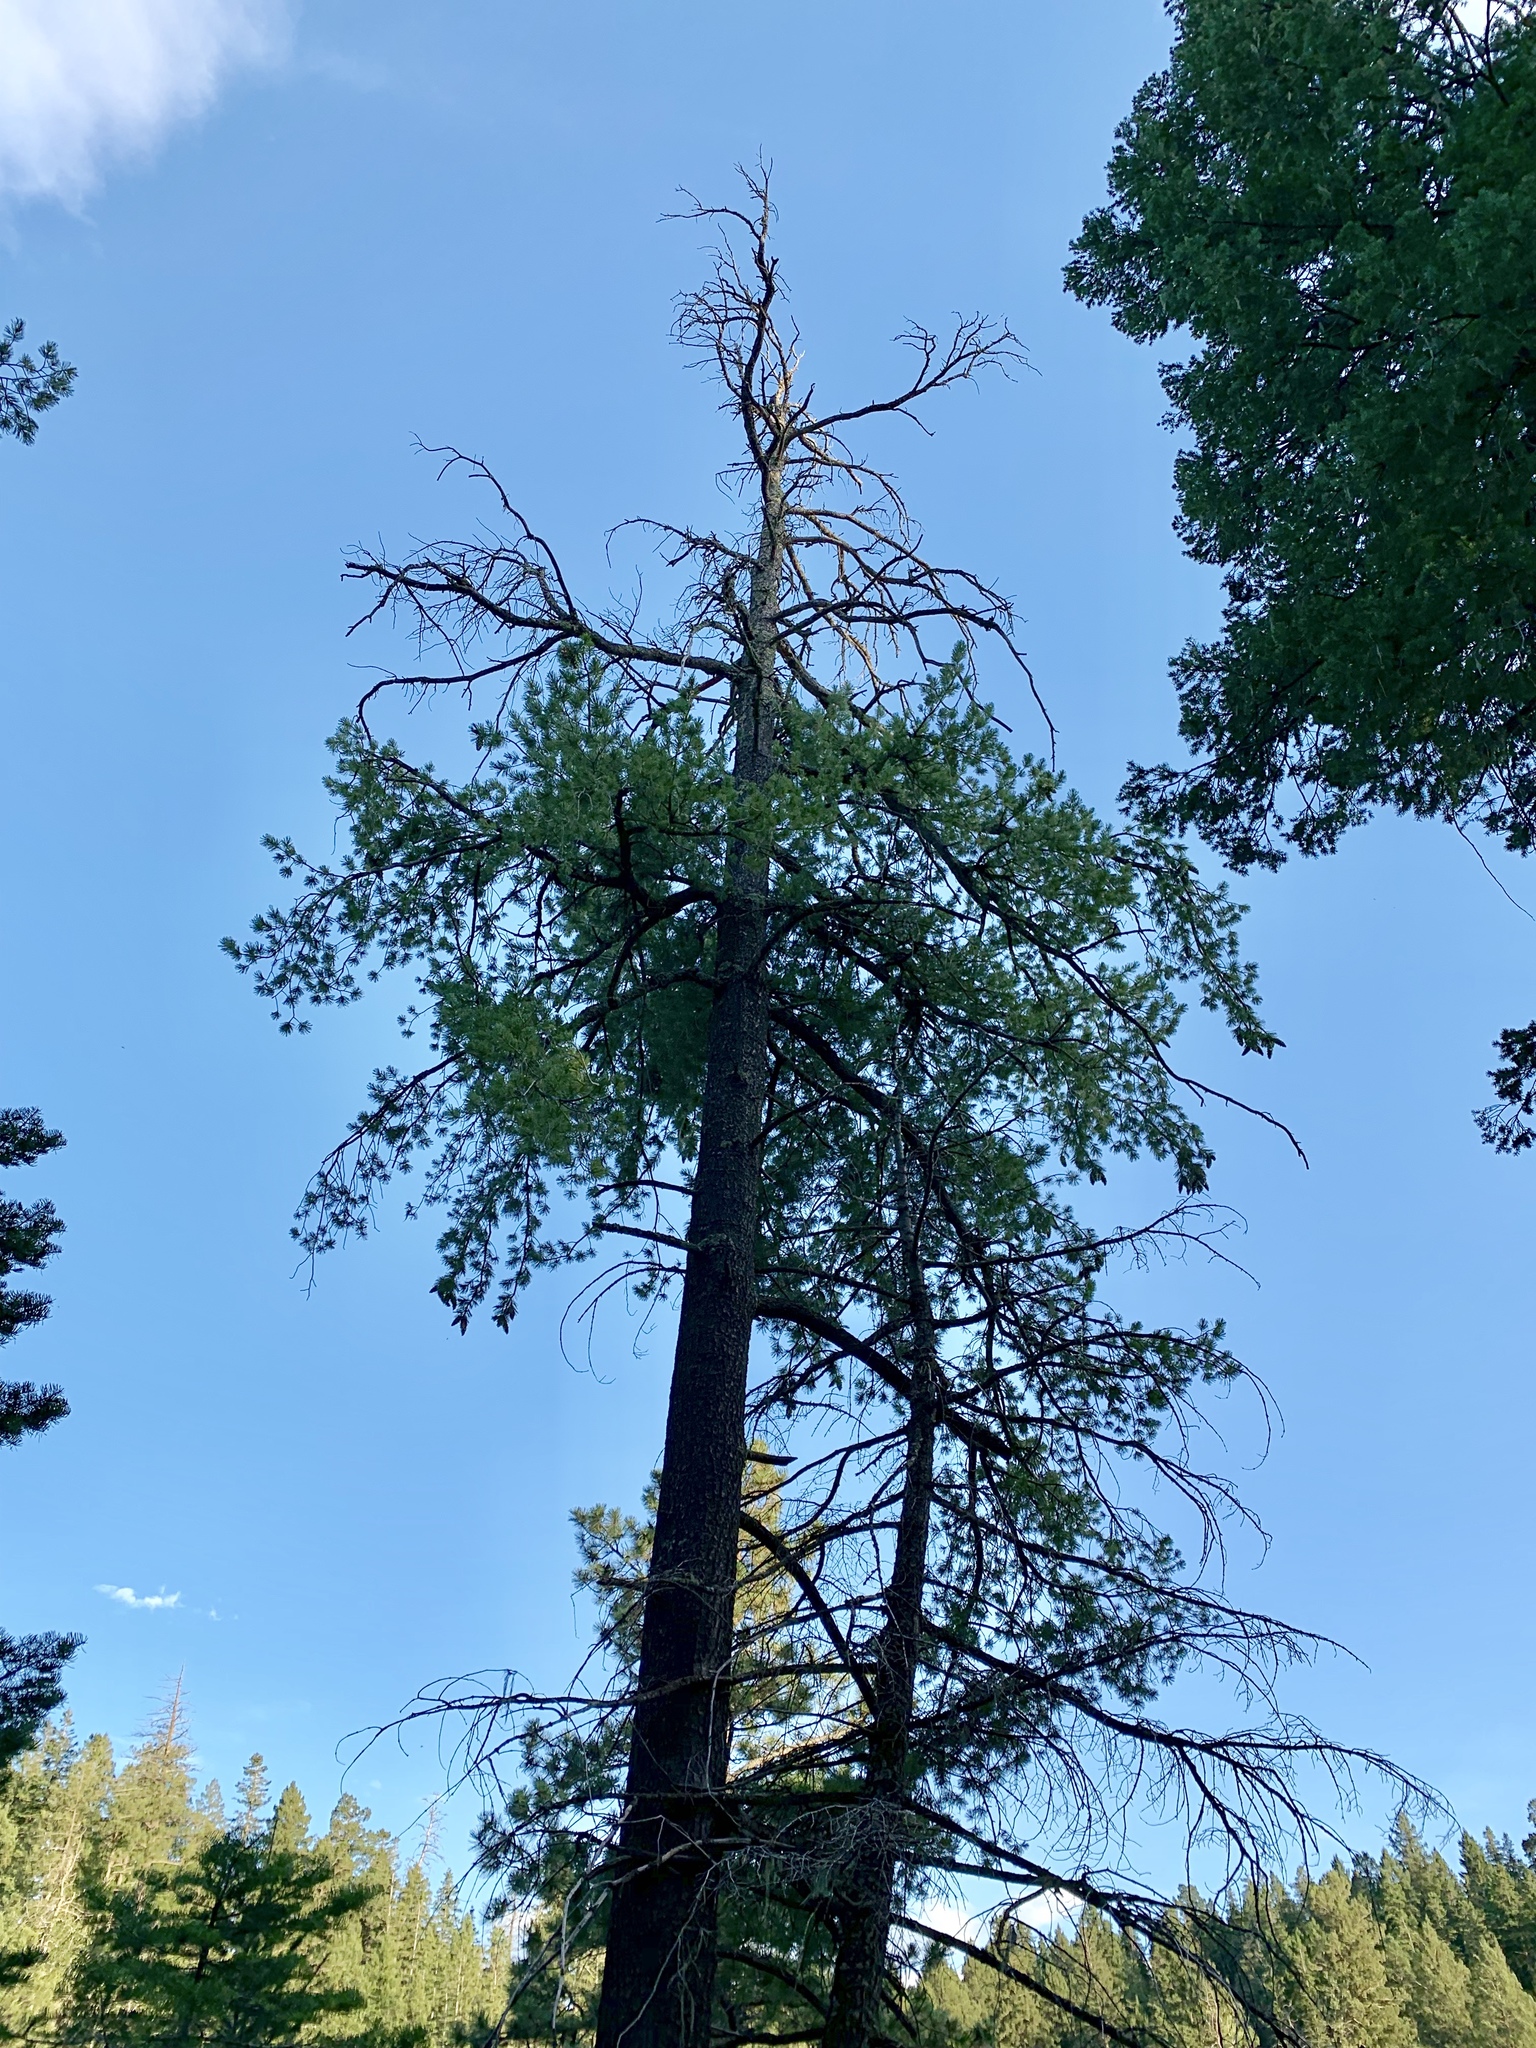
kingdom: Plantae
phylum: Tracheophyta
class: Pinopsida
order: Pinales
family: Pinaceae
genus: Pinus
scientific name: Pinus strobiformis
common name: Southwestern white pine
